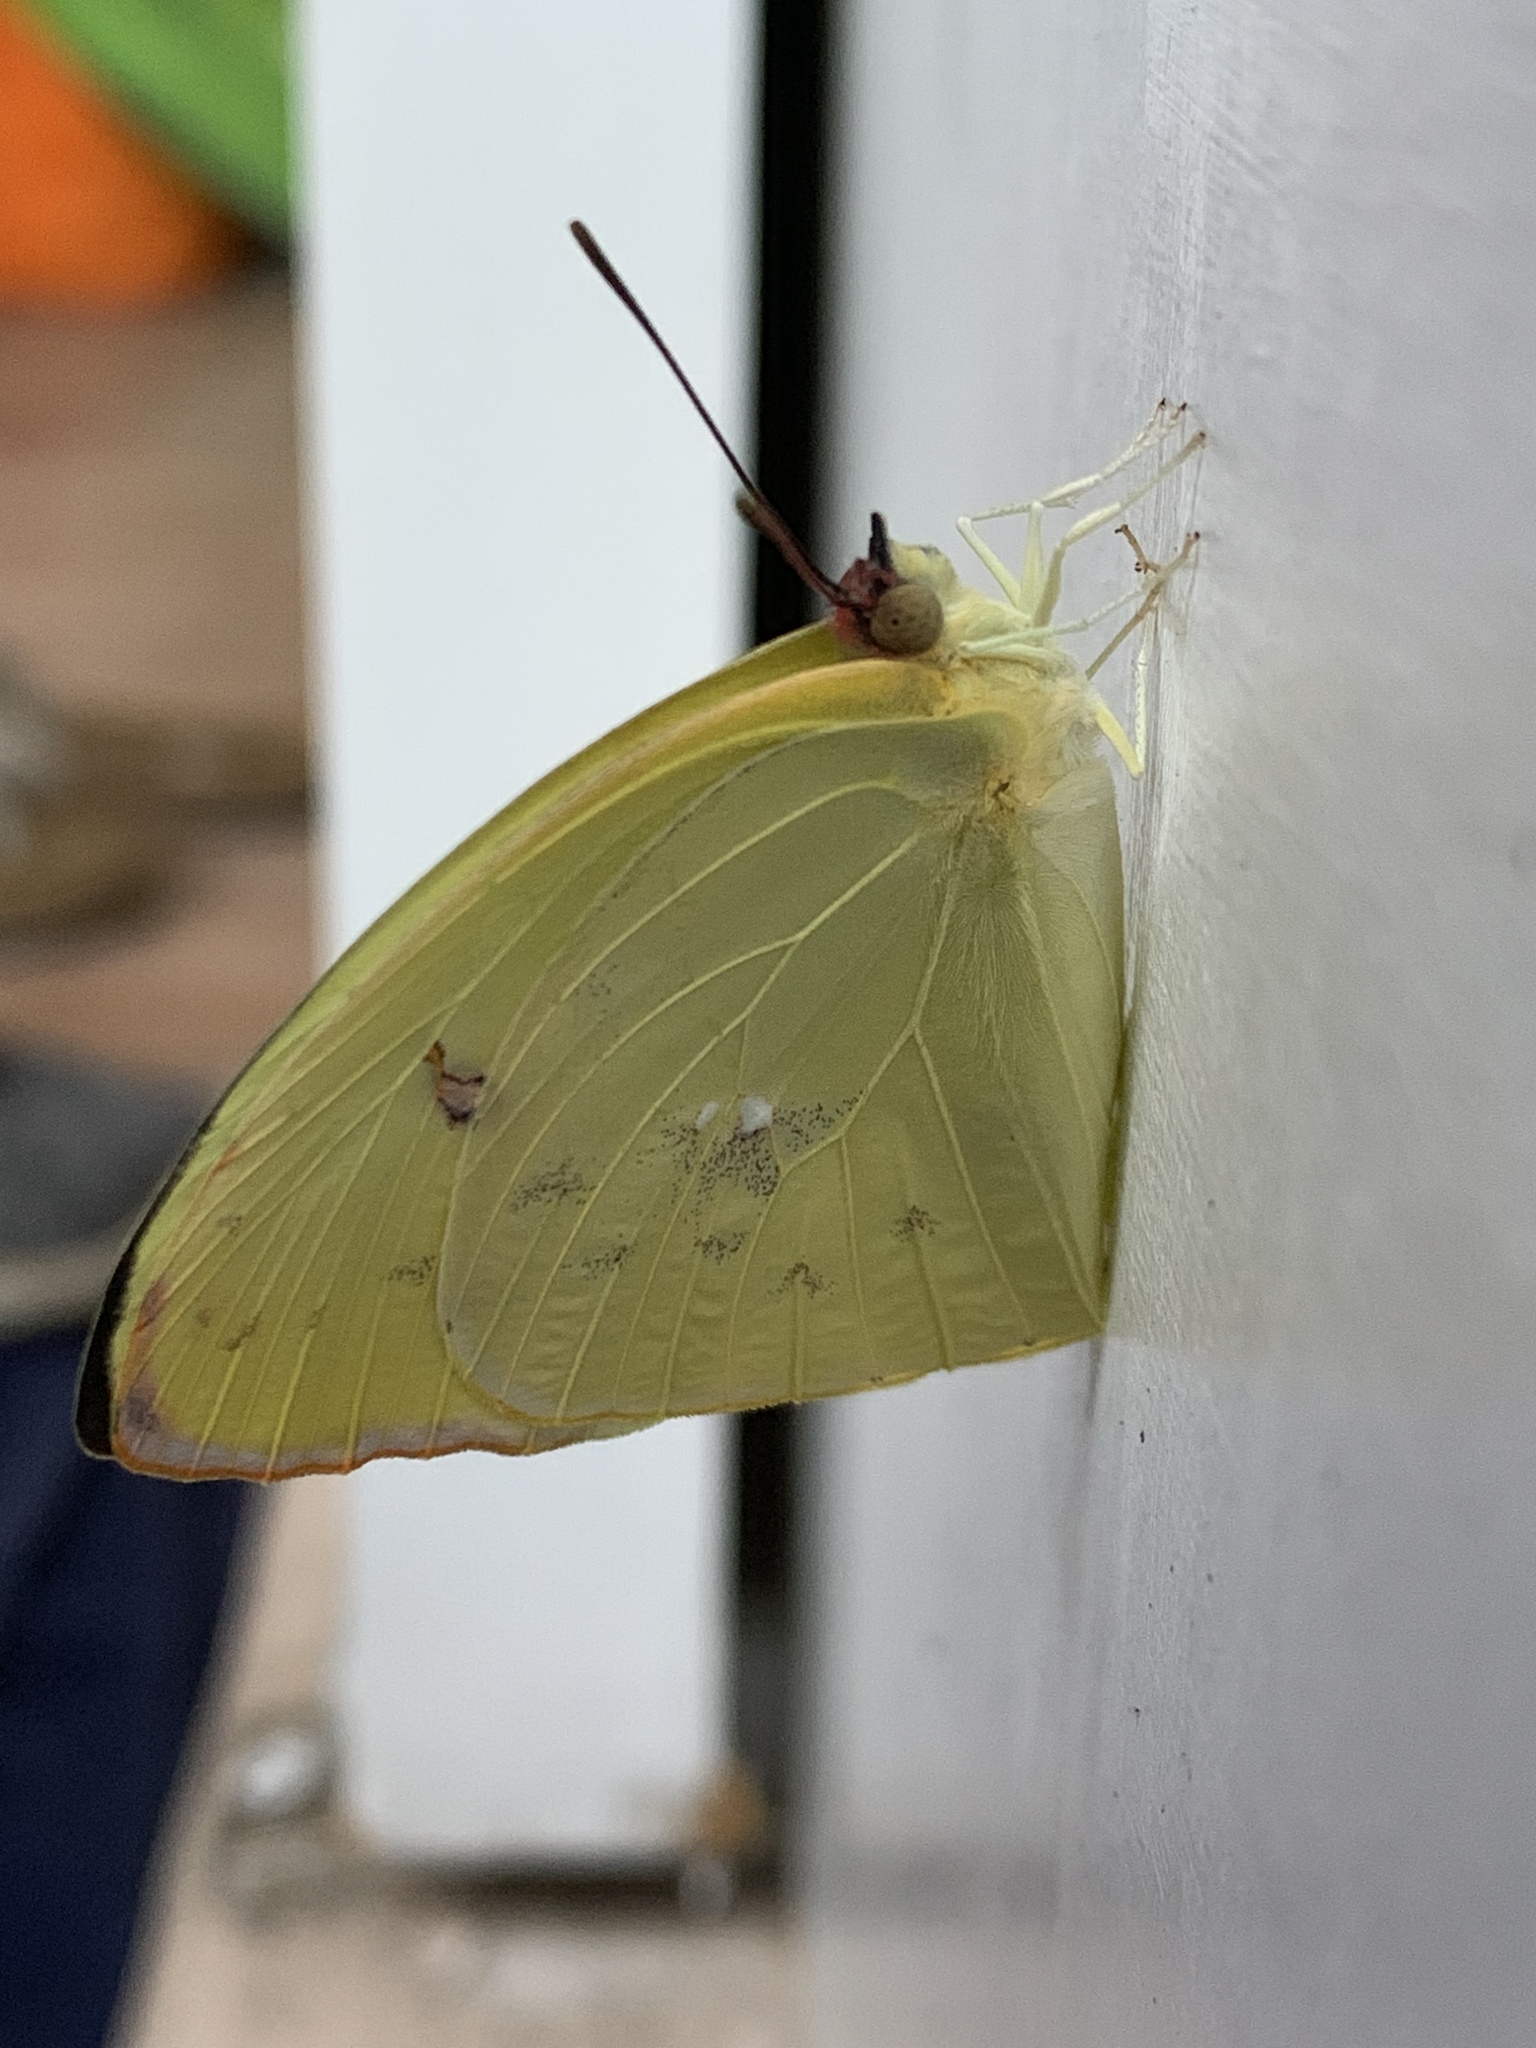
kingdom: Animalia
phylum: Arthropoda
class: Insecta
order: Lepidoptera
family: Pieridae
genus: Aphrissa
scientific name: Aphrissa statira
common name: Statira sulphur
